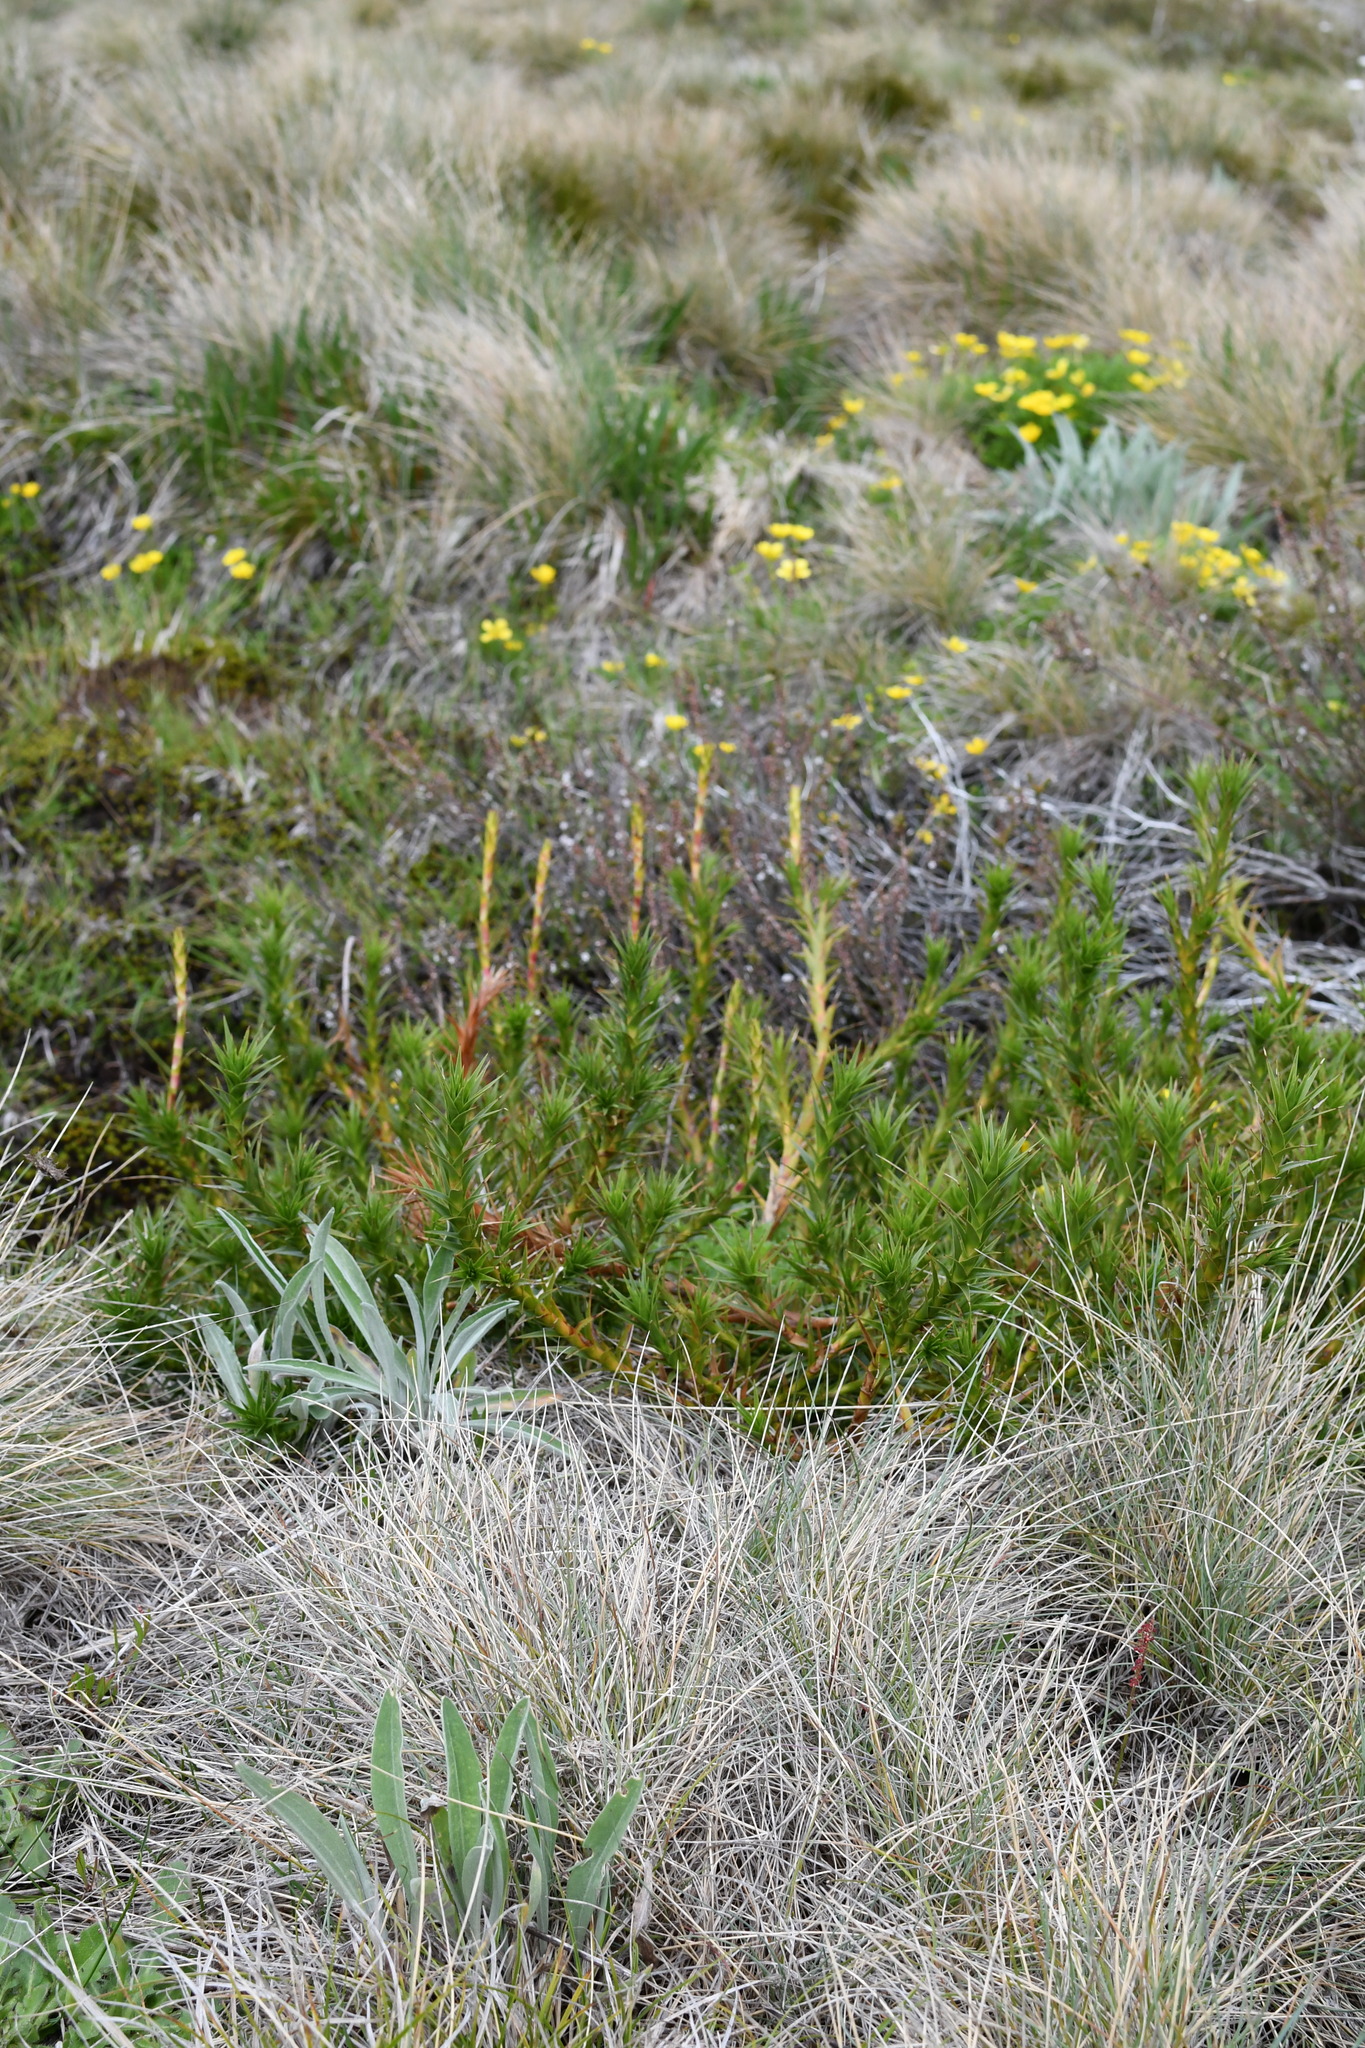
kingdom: Plantae
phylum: Tracheophyta
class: Magnoliopsida
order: Ericales
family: Ericaceae
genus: Dracophyllum
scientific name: Dracophyllum continentis
